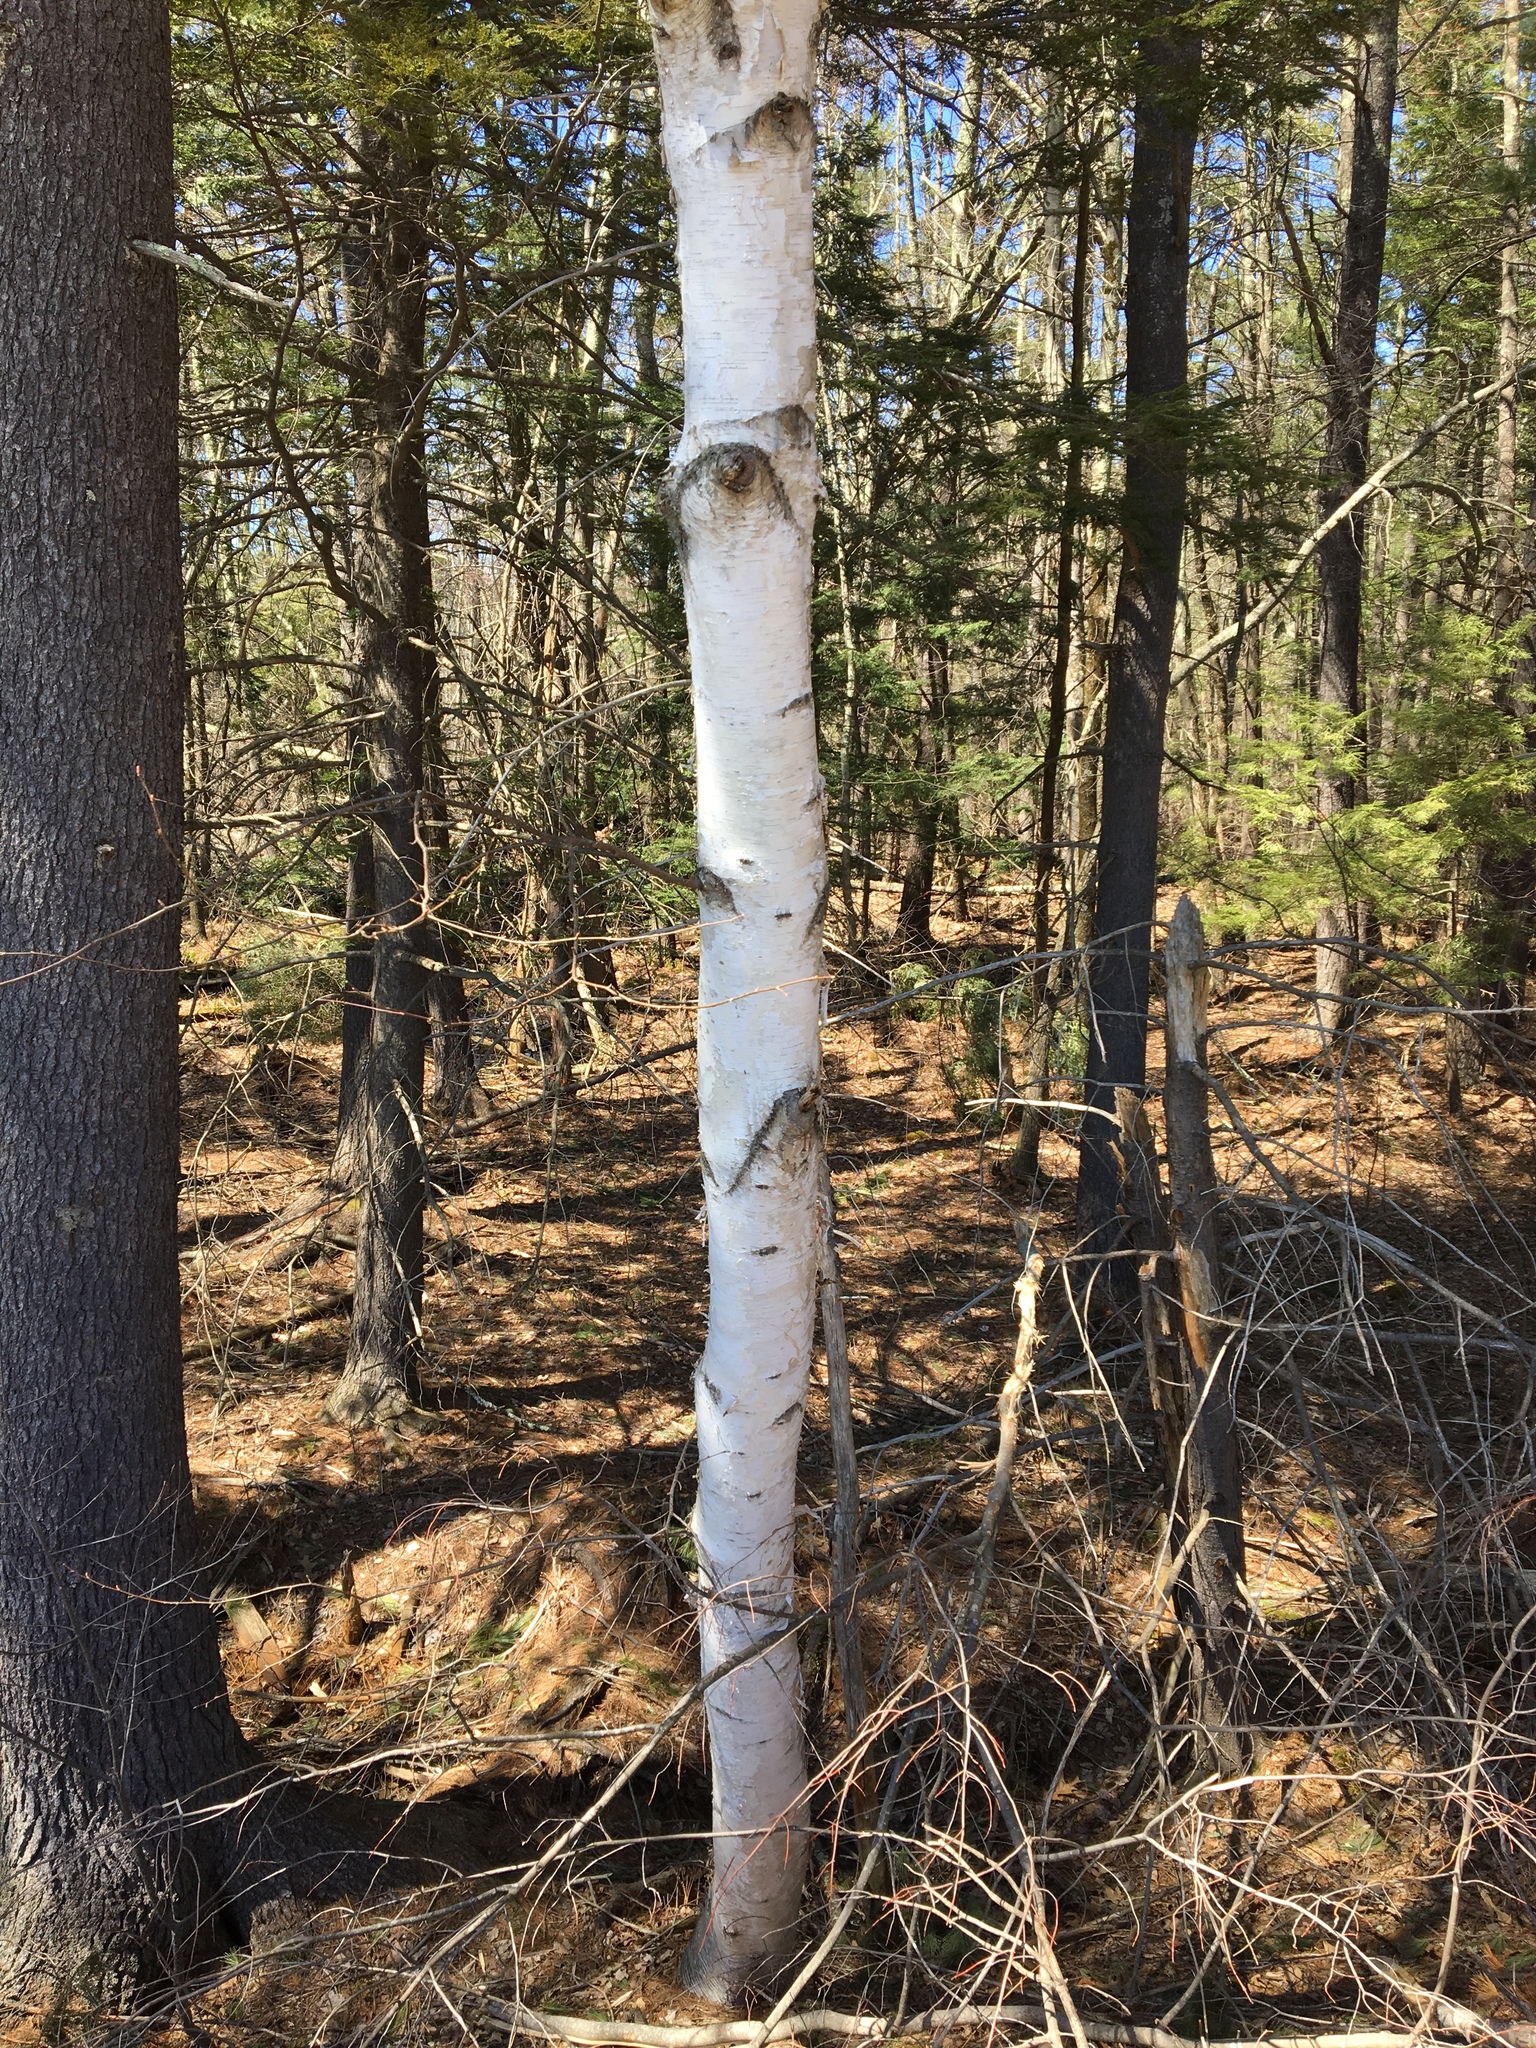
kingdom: Plantae
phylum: Tracheophyta
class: Magnoliopsida
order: Fagales
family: Betulaceae
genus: Betula
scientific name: Betula papyrifera
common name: Paper birch
